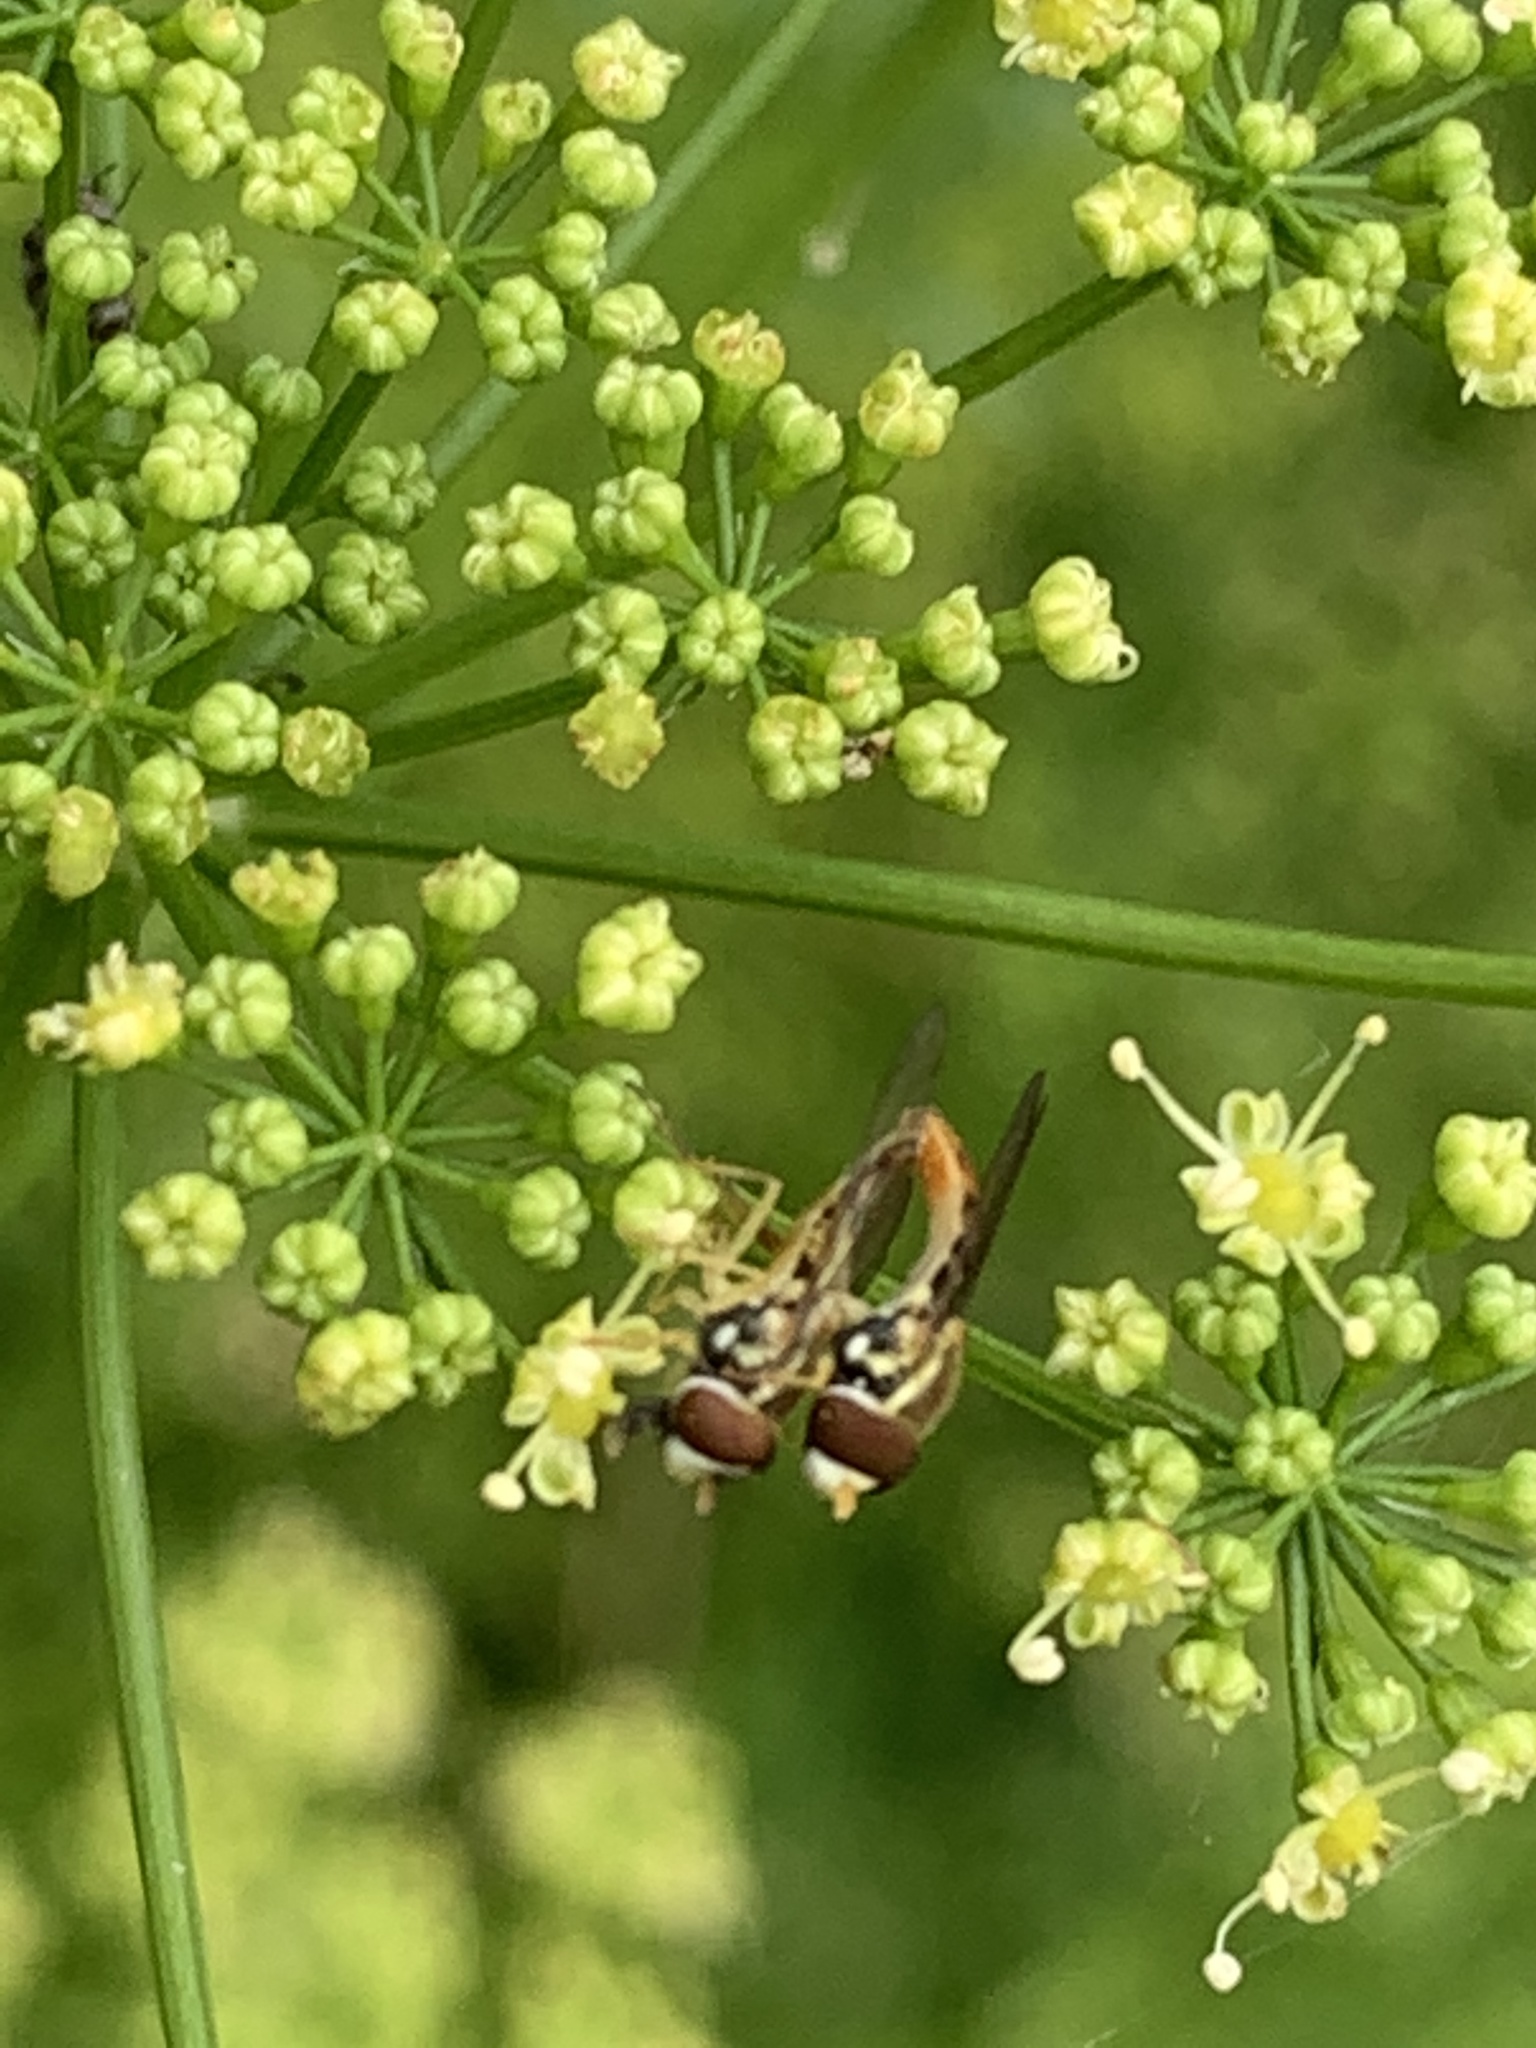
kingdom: Animalia
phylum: Arthropoda
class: Insecta
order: Diptera
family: Syrphidae
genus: Toxomerus
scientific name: Toxomerus marginatus
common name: Syrphid fly
